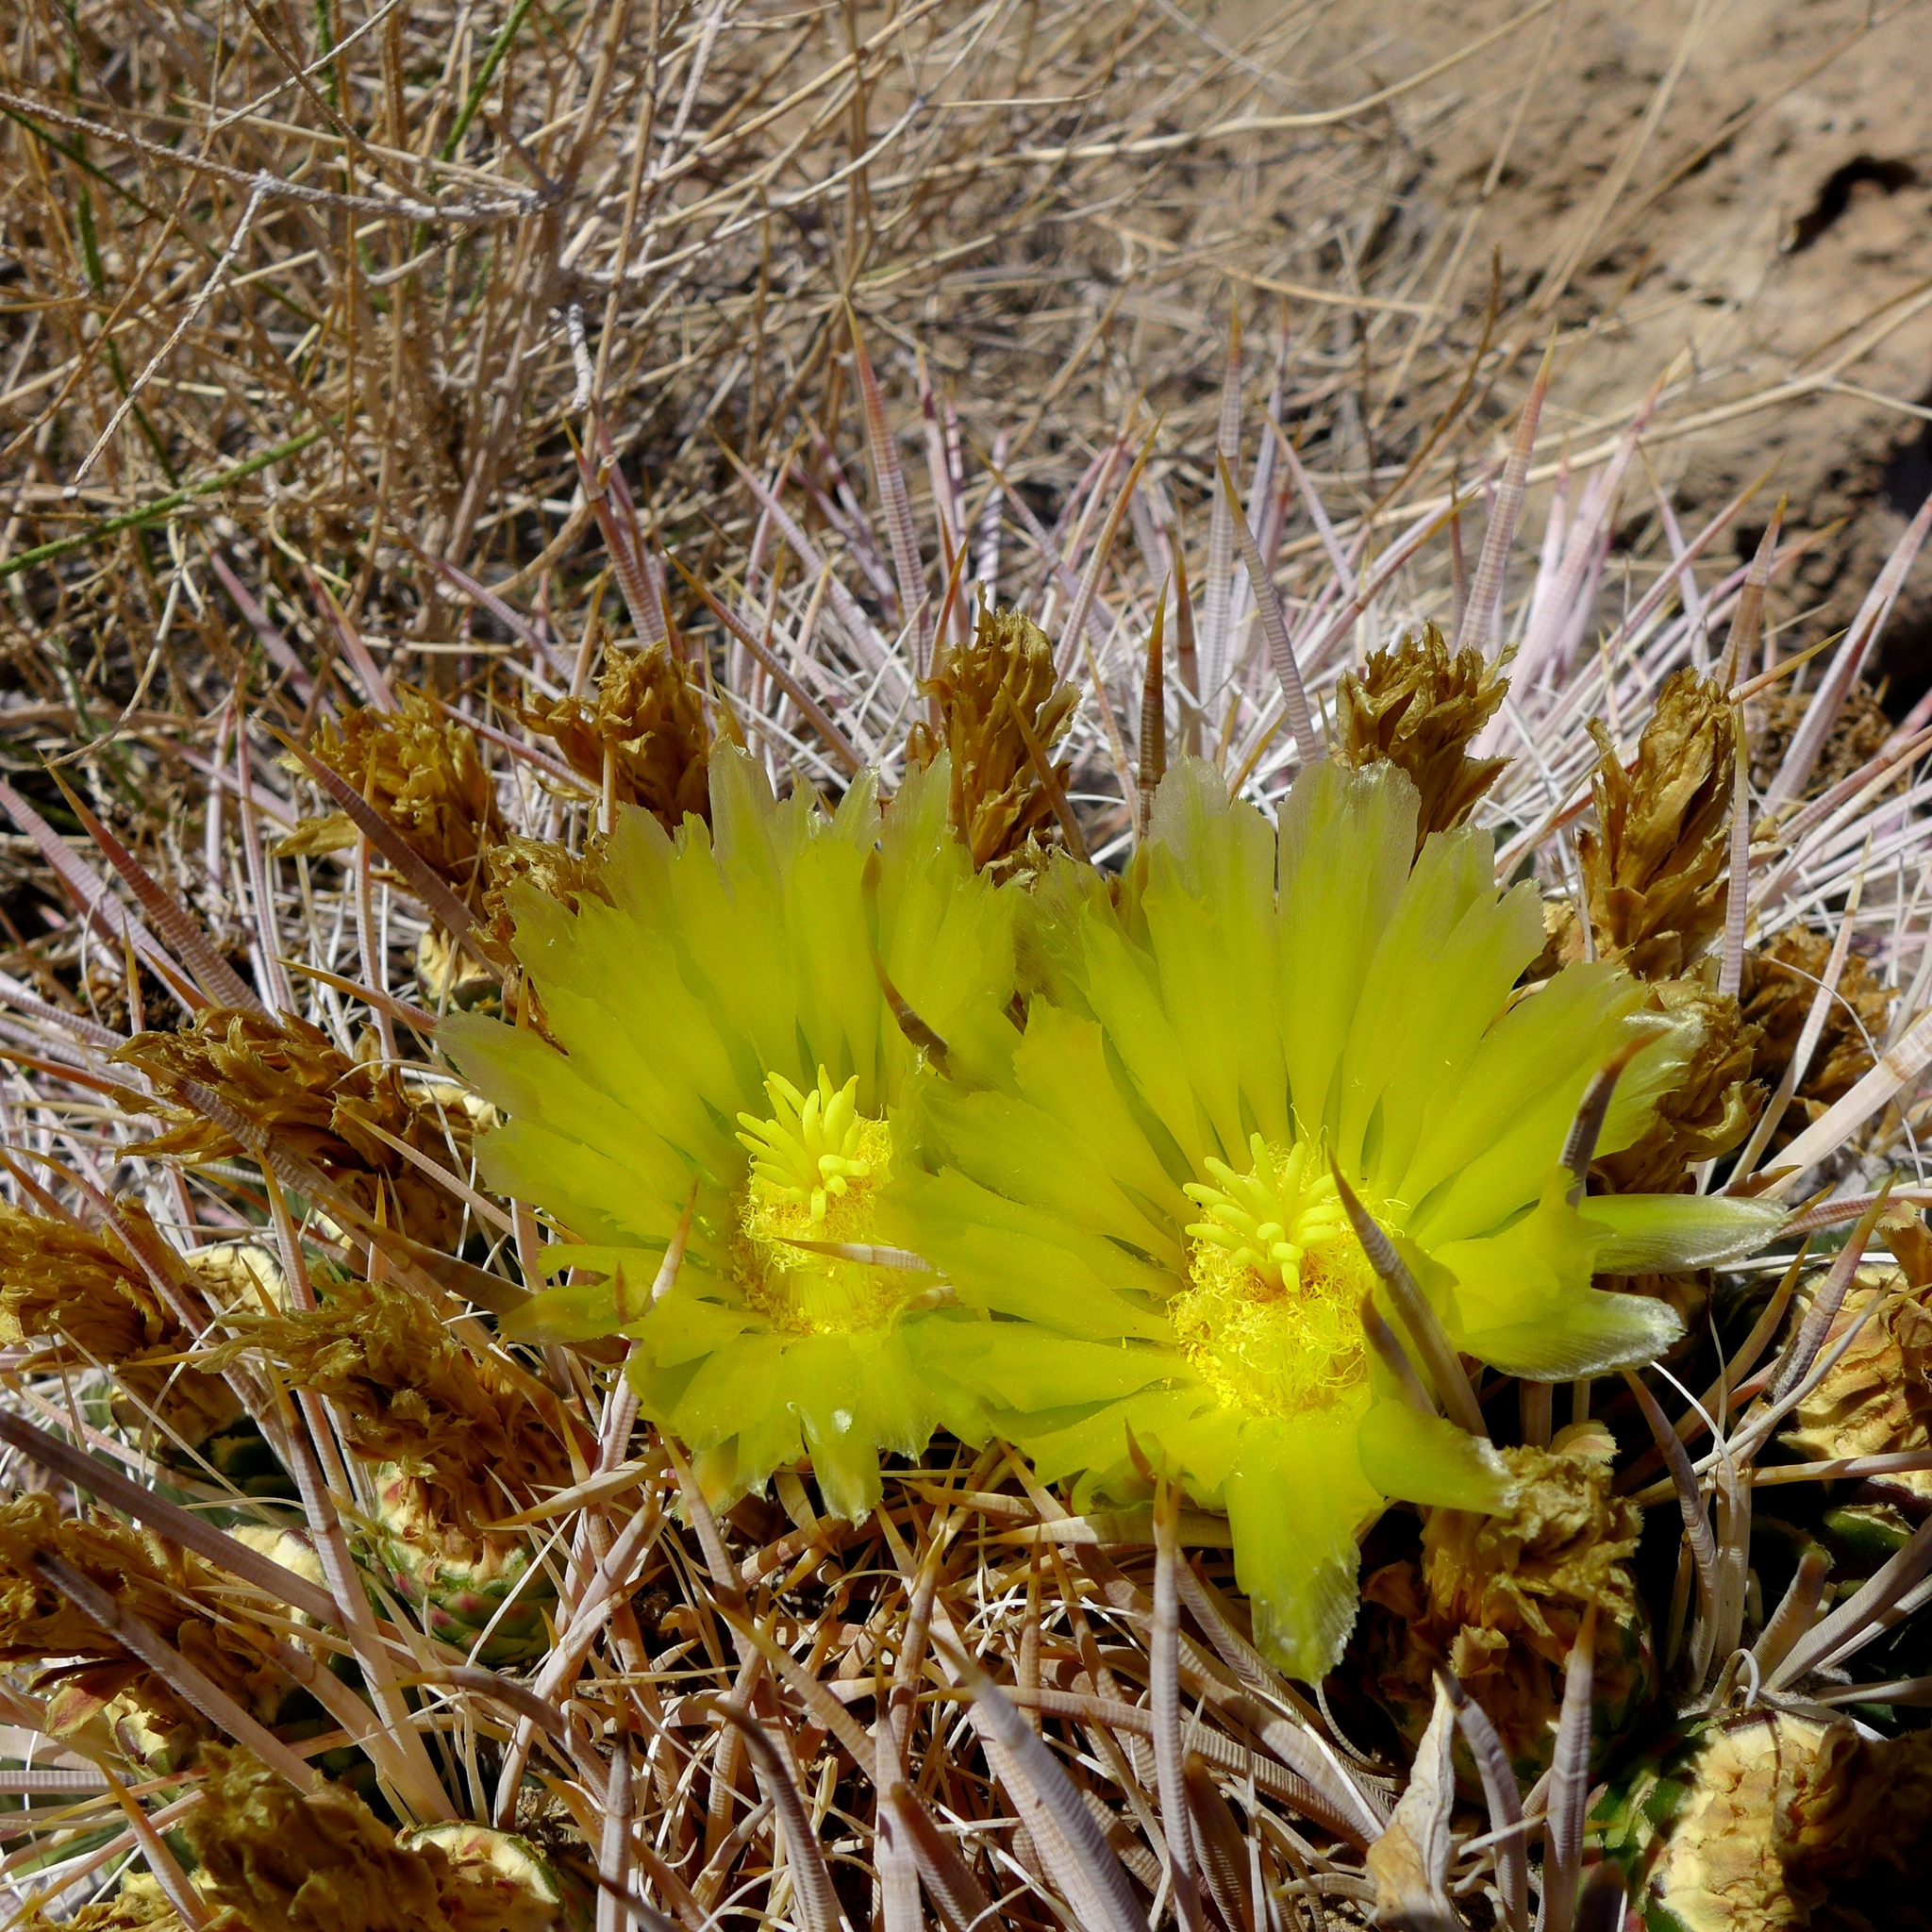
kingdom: Plantae
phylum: Tracheophyta
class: Magnoliopsida
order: Caryophyllales
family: Cactaceae
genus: Ferocactus
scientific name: Ferocactus cylindraceus
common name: California barrel cactus
